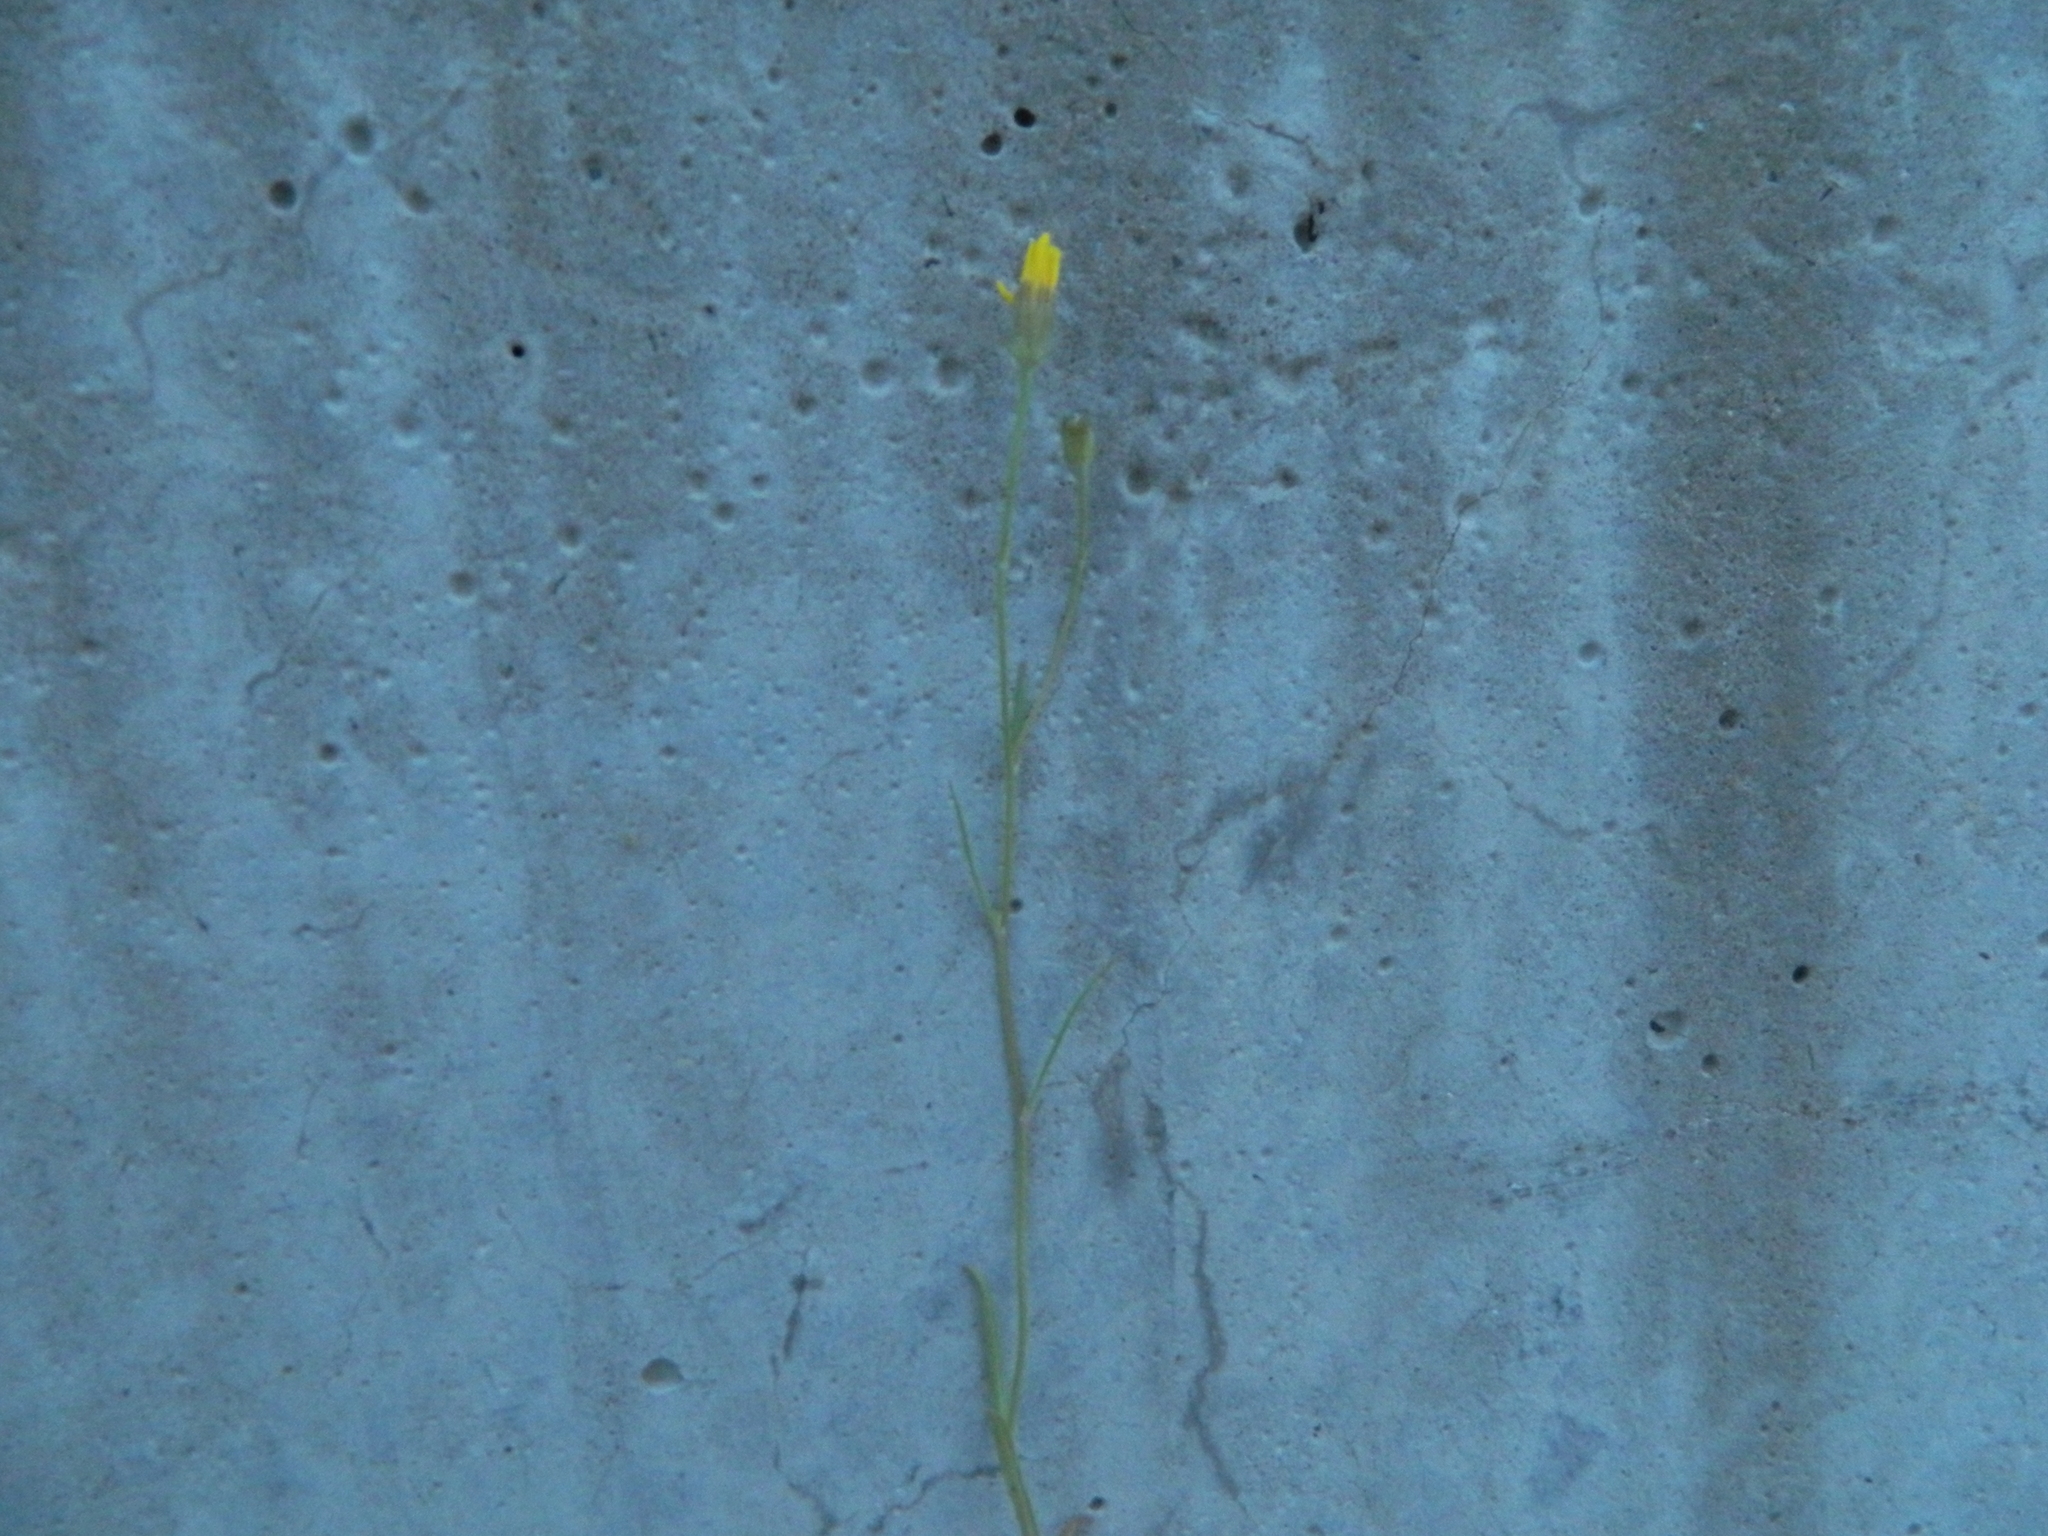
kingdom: Plantae
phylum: Tracheophyta
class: Magnoliopsida
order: Asterales
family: Asteraceae
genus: Crepis
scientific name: Crepis tectorum
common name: Narrow-leaved hawk's-beard
